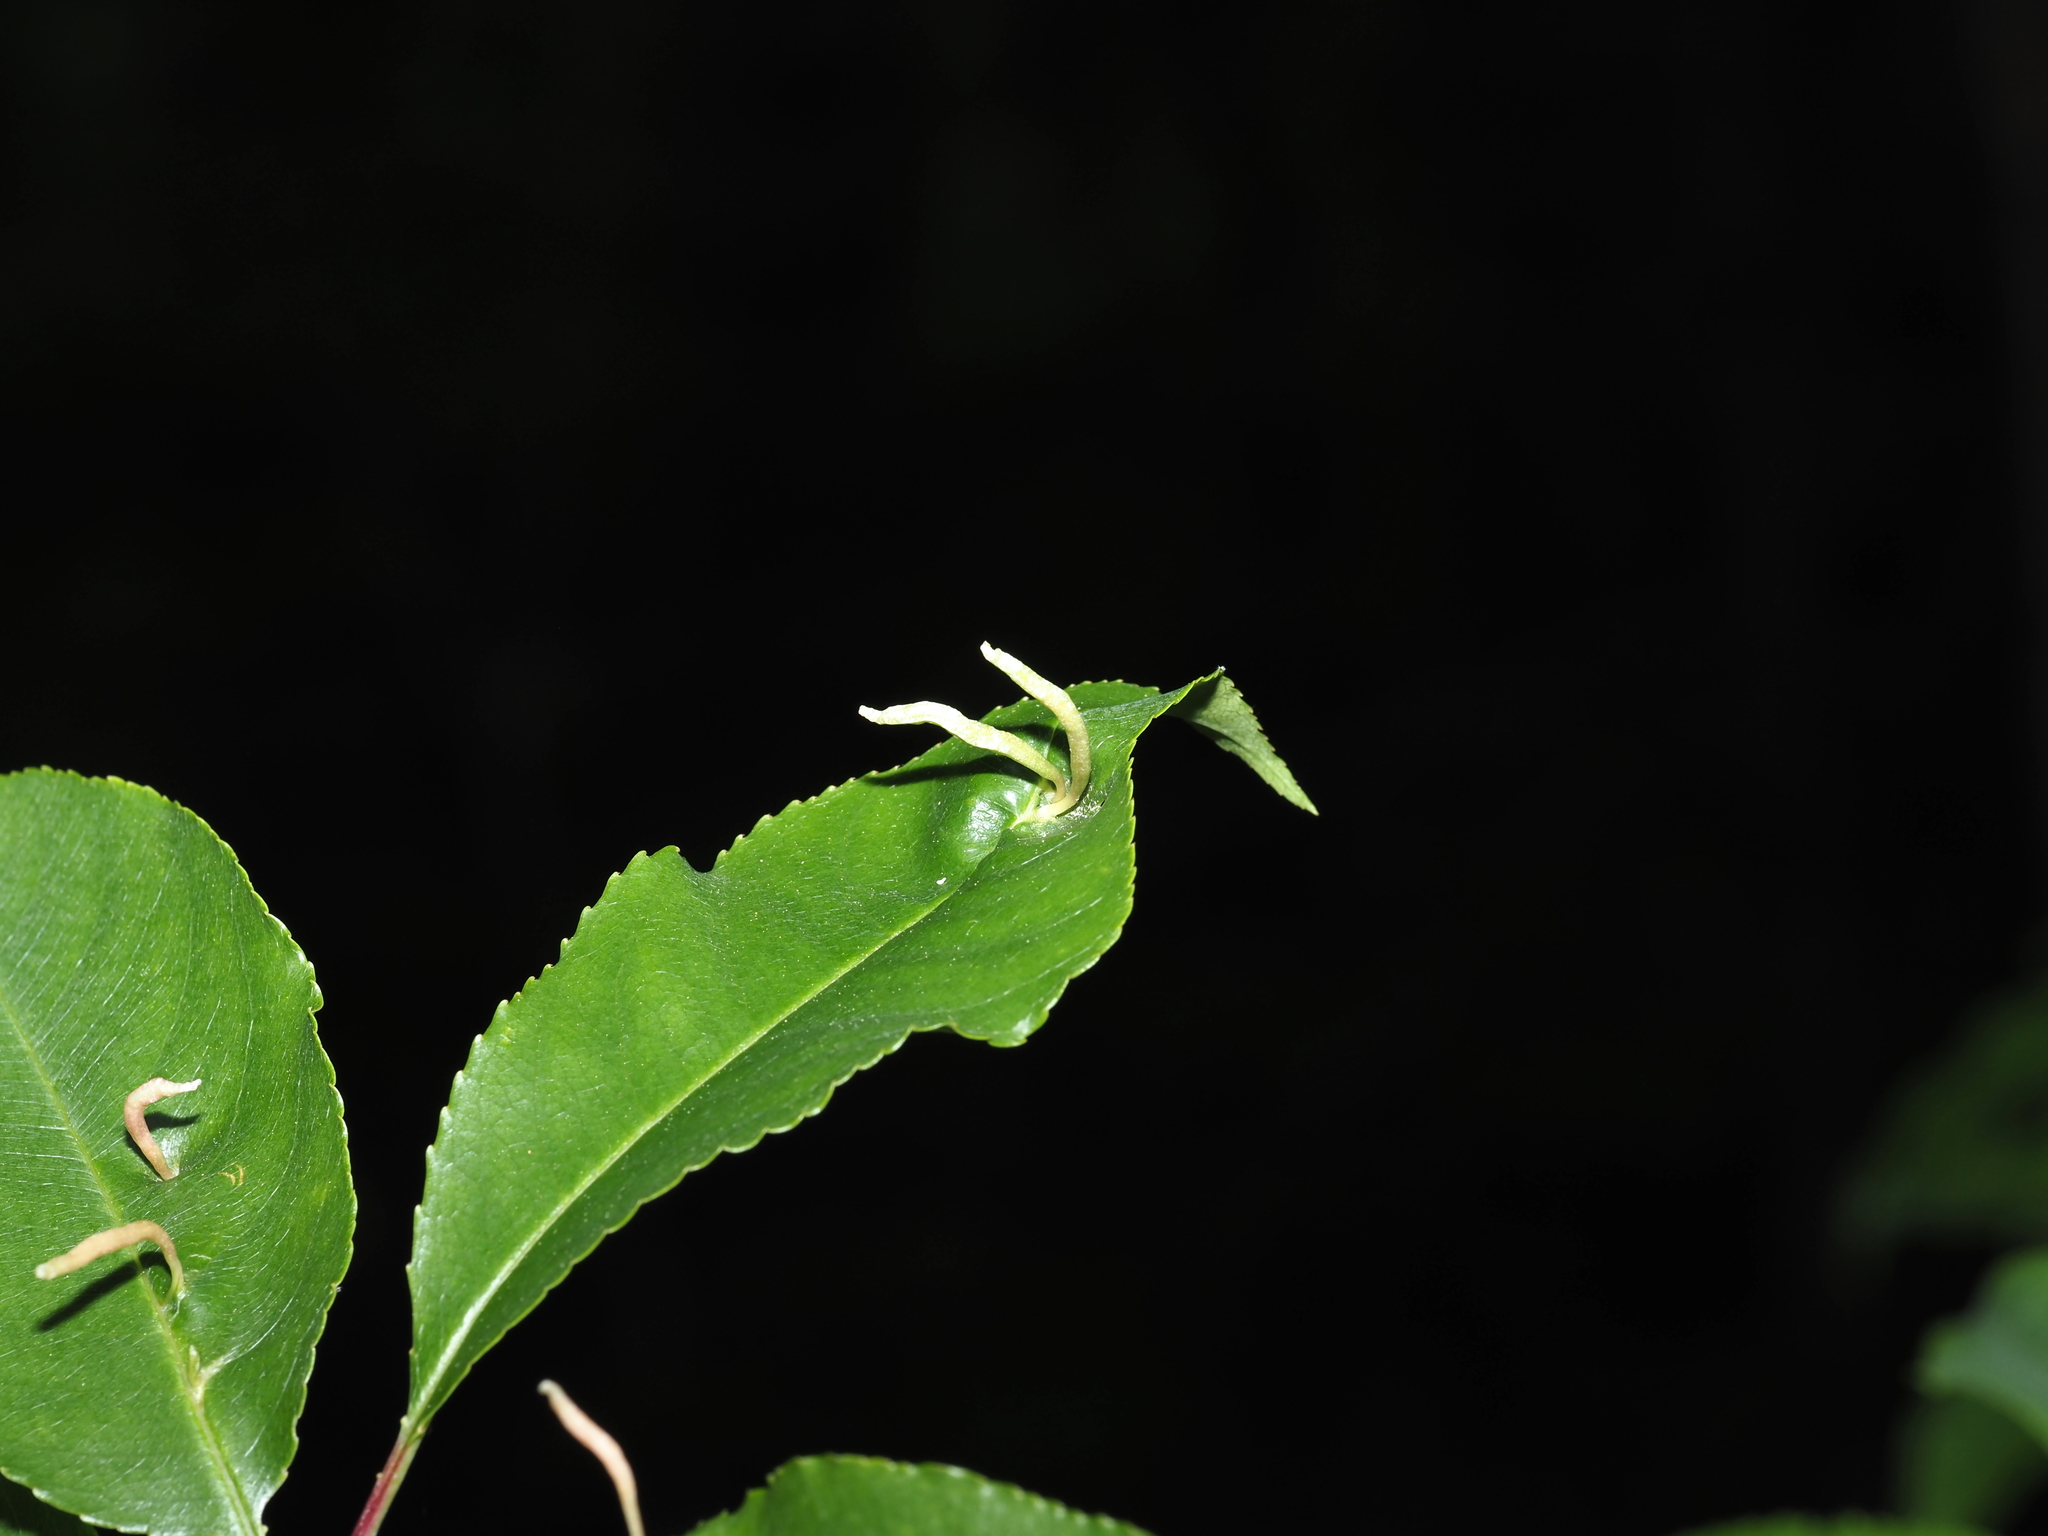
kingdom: Animalia
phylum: Arthropoda
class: Arachnida
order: Trombidiformes
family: Eriophyidae
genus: Eriophyes
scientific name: Eriophyes
